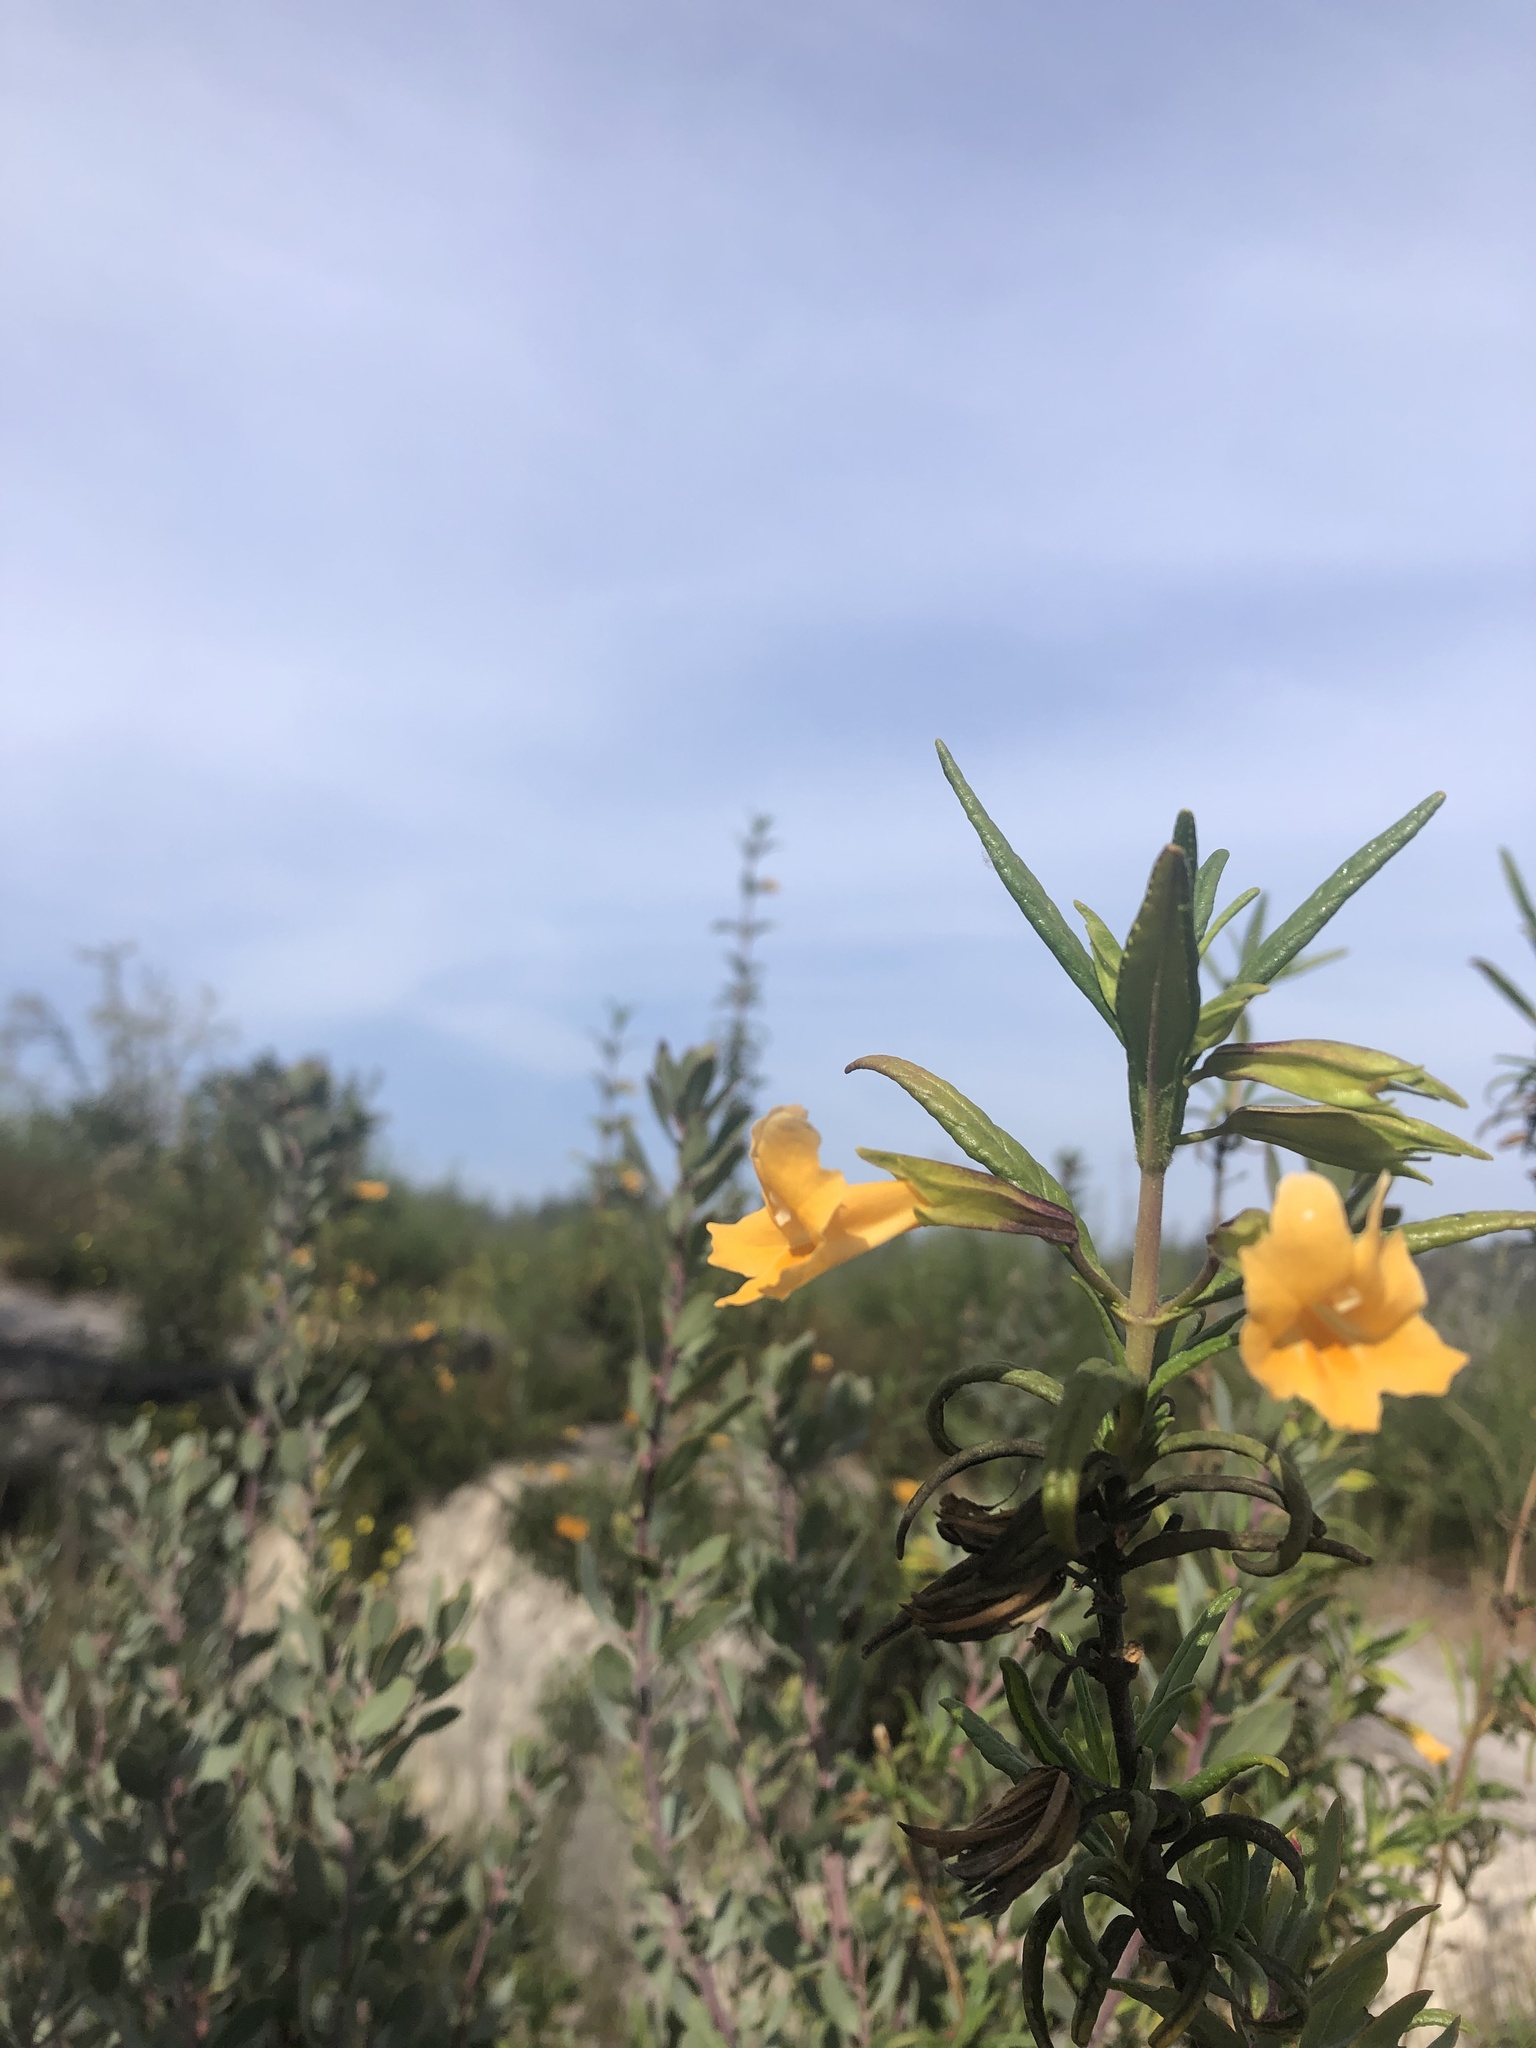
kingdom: Plantae
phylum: Tracheophyta
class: Magnoliopsida
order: Lamiales
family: Phrymaceae
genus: Diplacus
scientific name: Diplacus aurantiacus
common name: Bush monkey-flower
